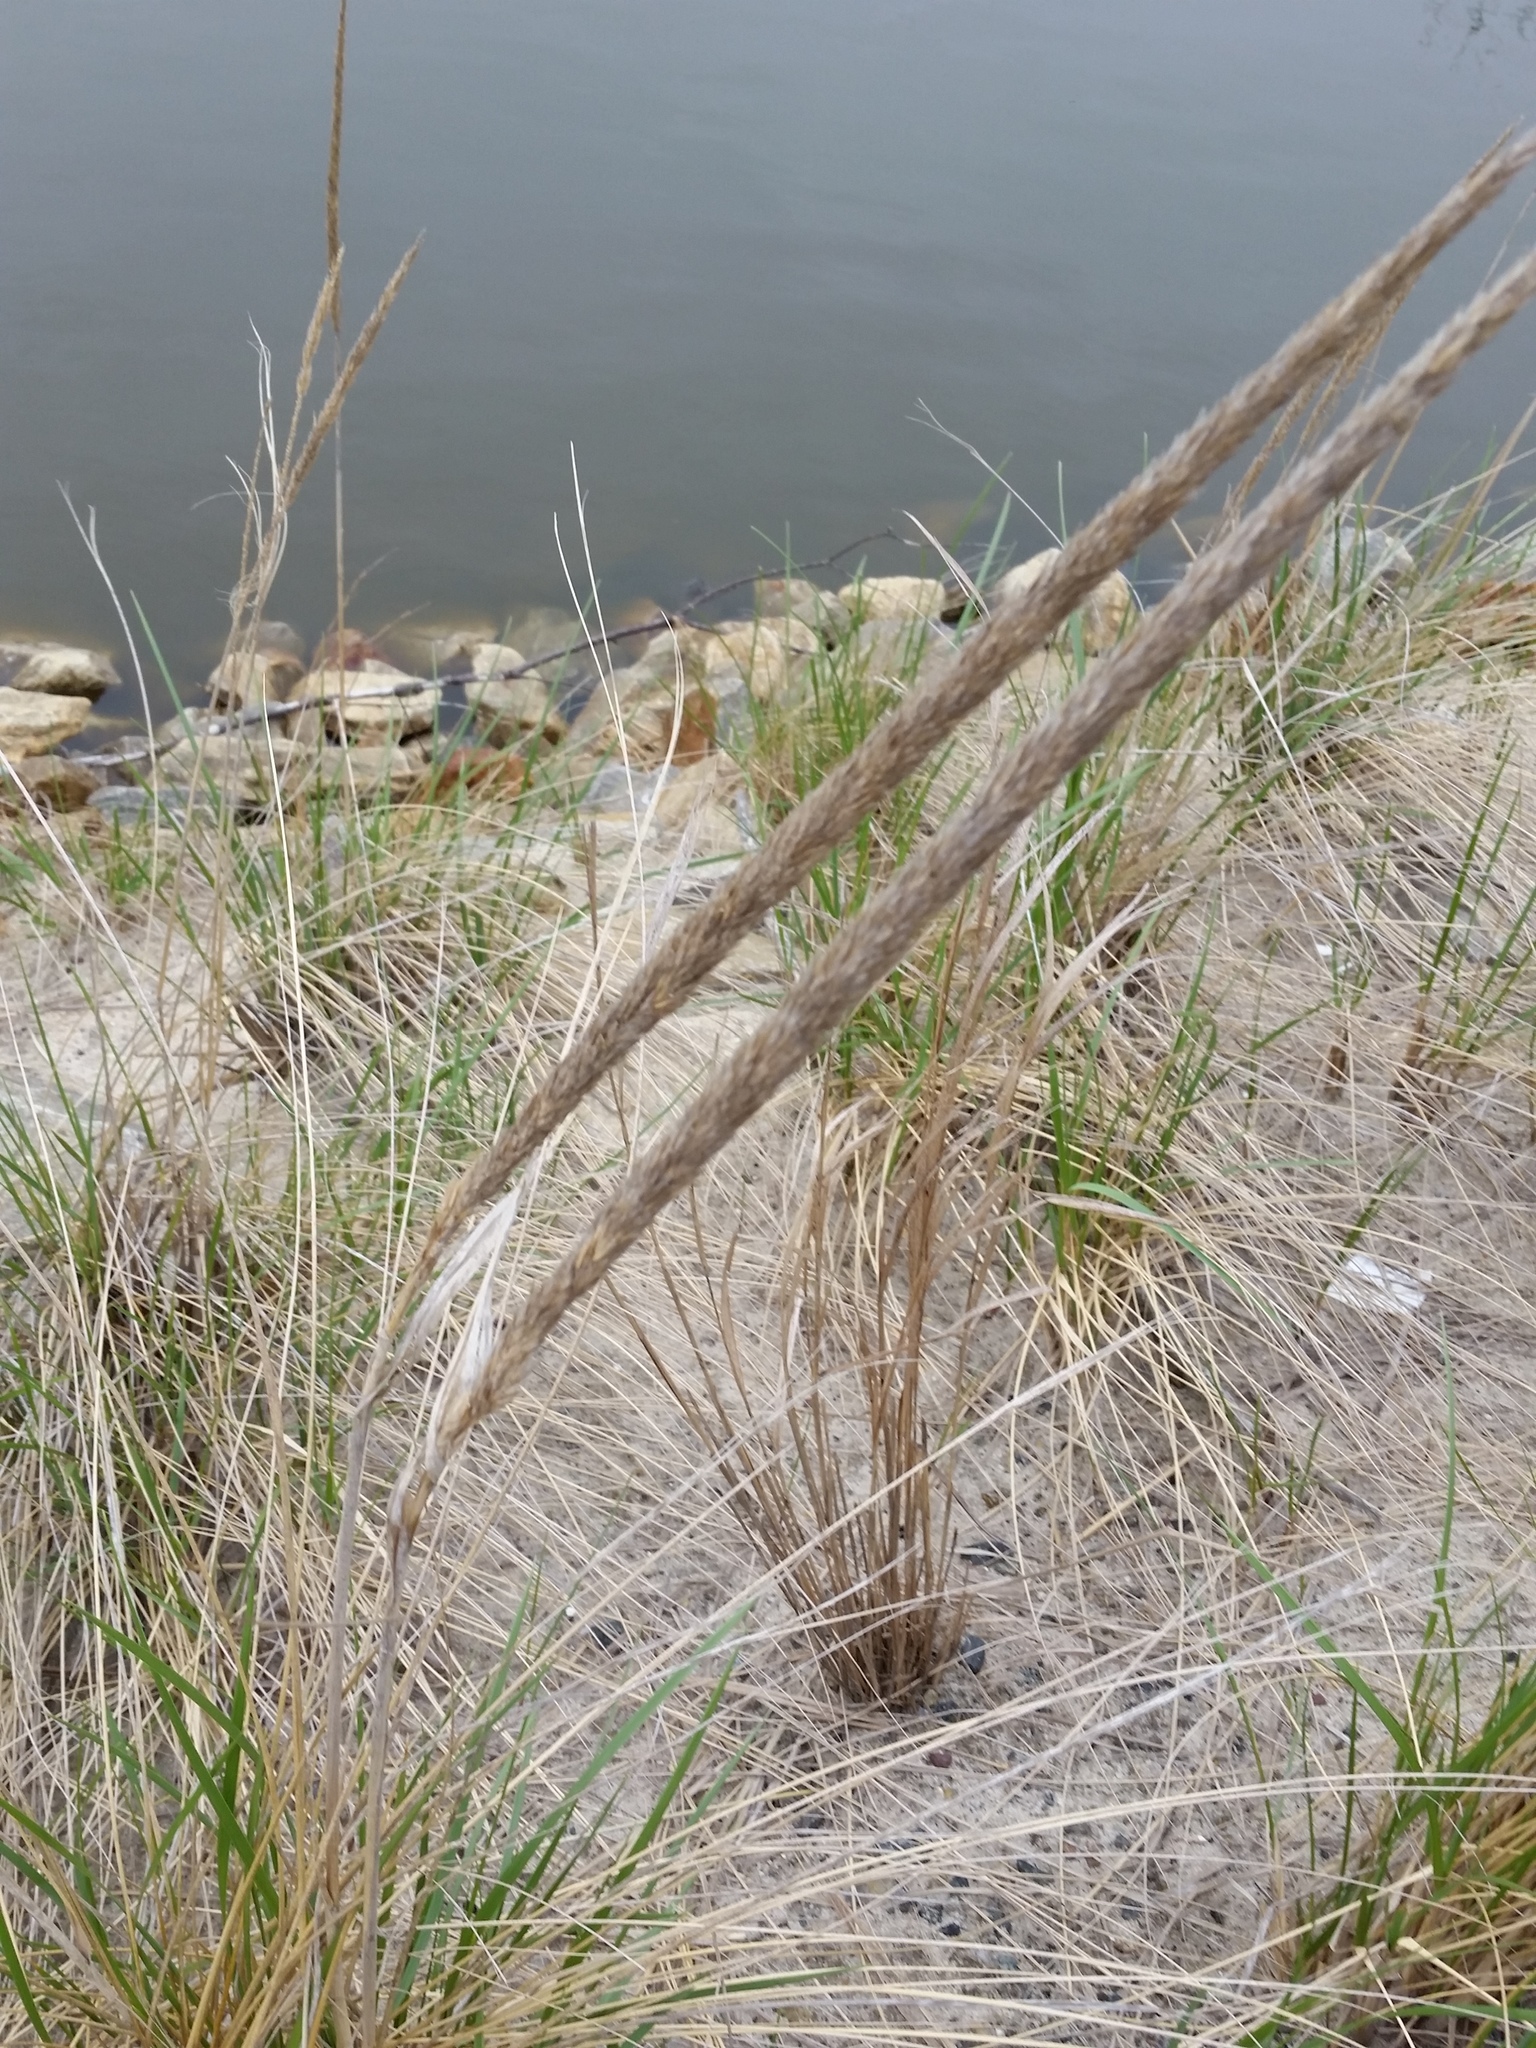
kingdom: Plantae
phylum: Tracheophyta
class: Liliopsida
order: Poales
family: Poaceae
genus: Calamagrostis
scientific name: Calamagrostis breviligulata
